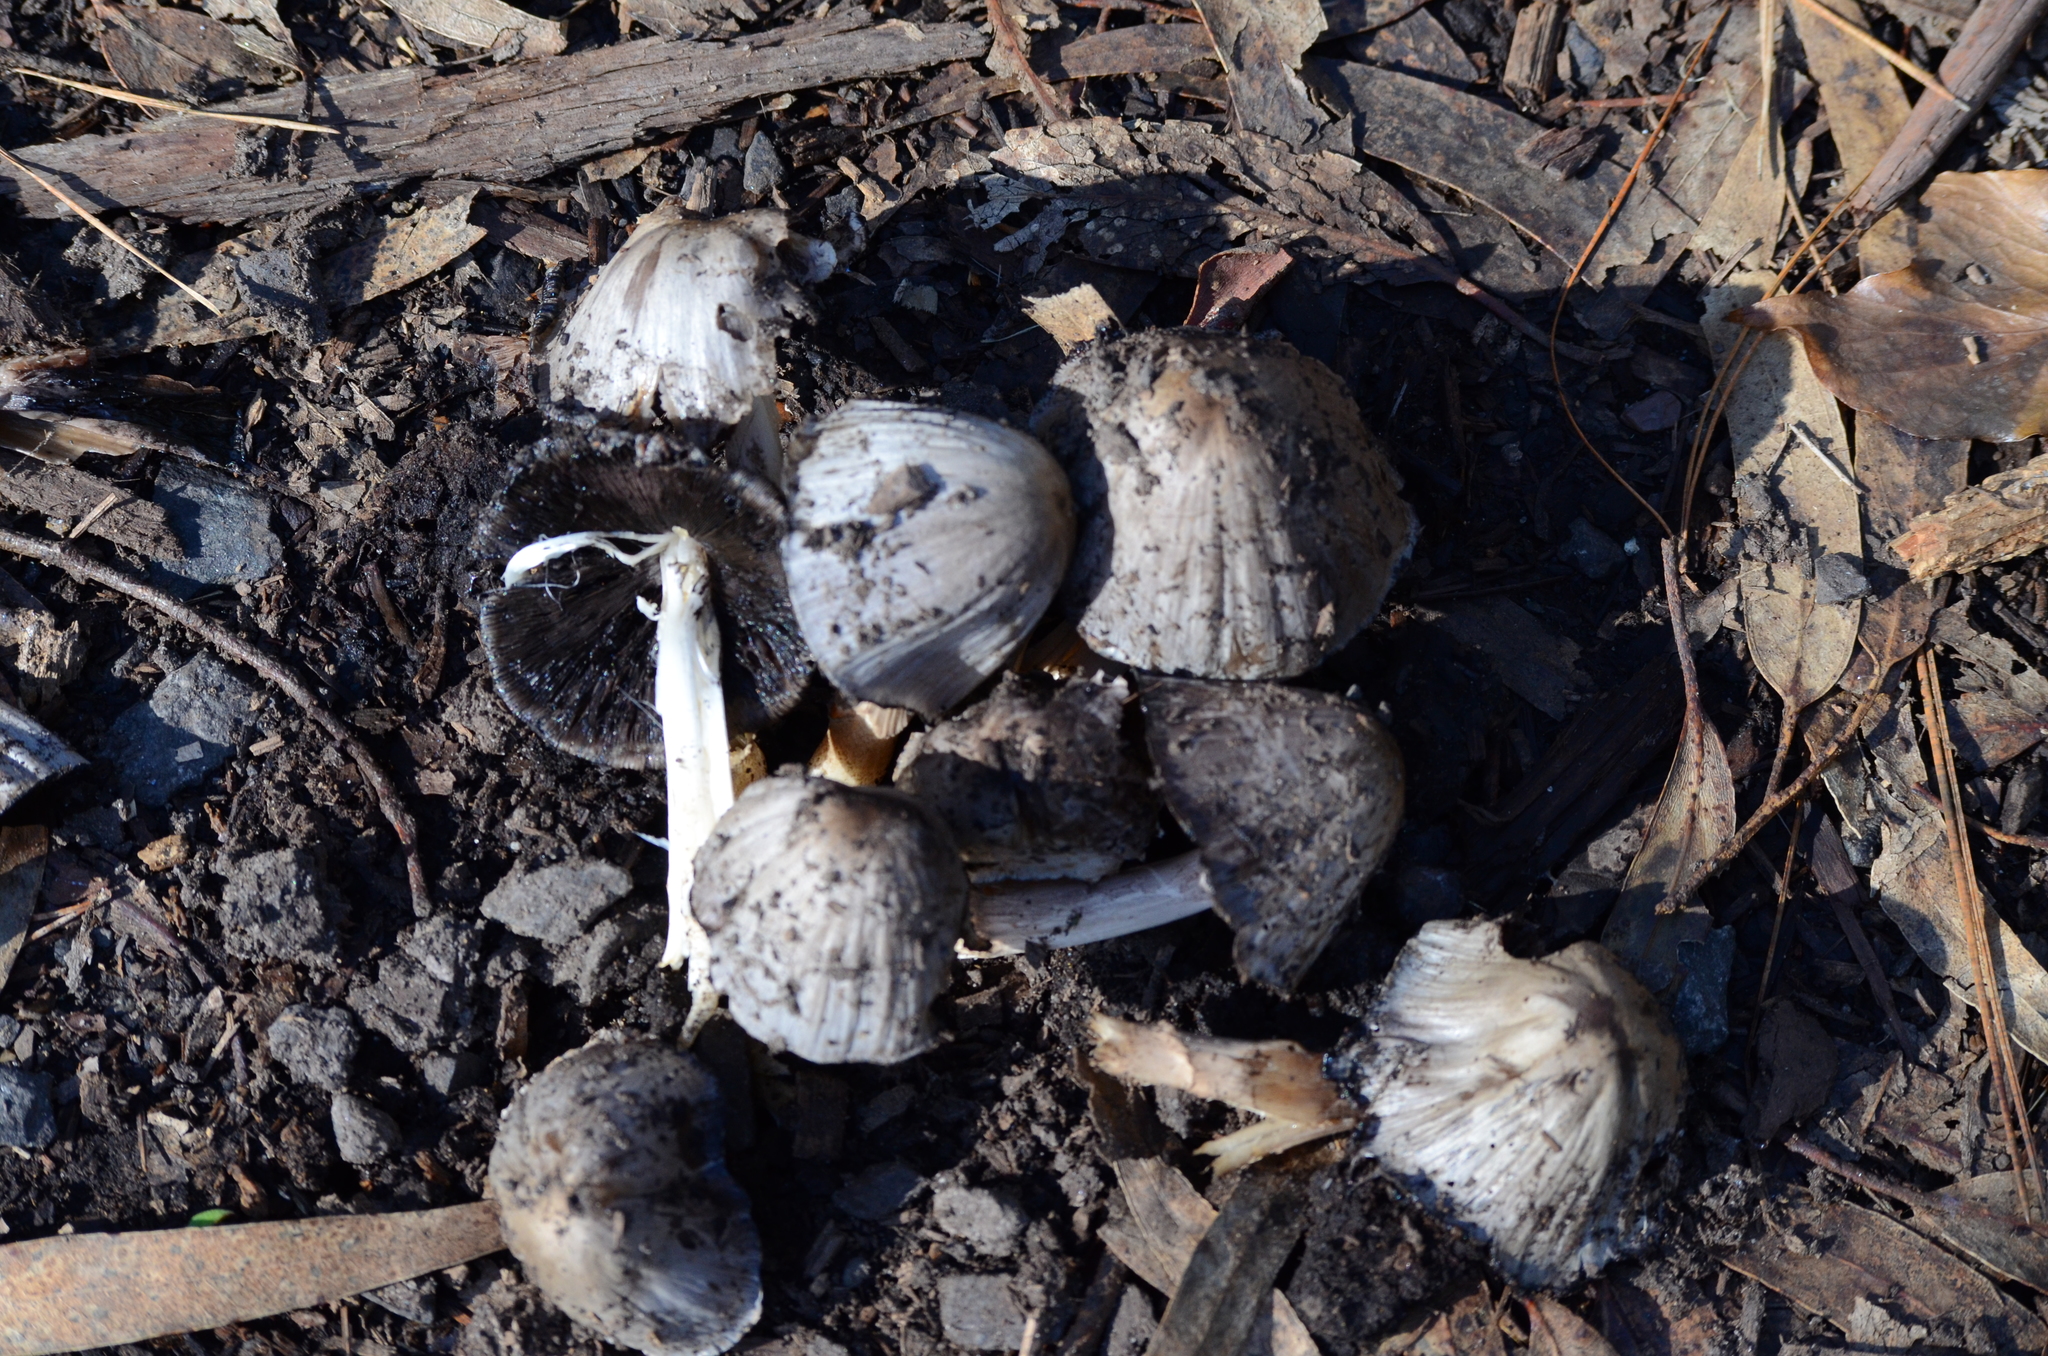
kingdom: Fungi
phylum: Basidiomycota
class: Agaricomycetes
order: Agaricales
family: Psathyrellaceae
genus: Coprinopsis
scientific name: Coprinopsis atramentaria
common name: Common ink-cap
